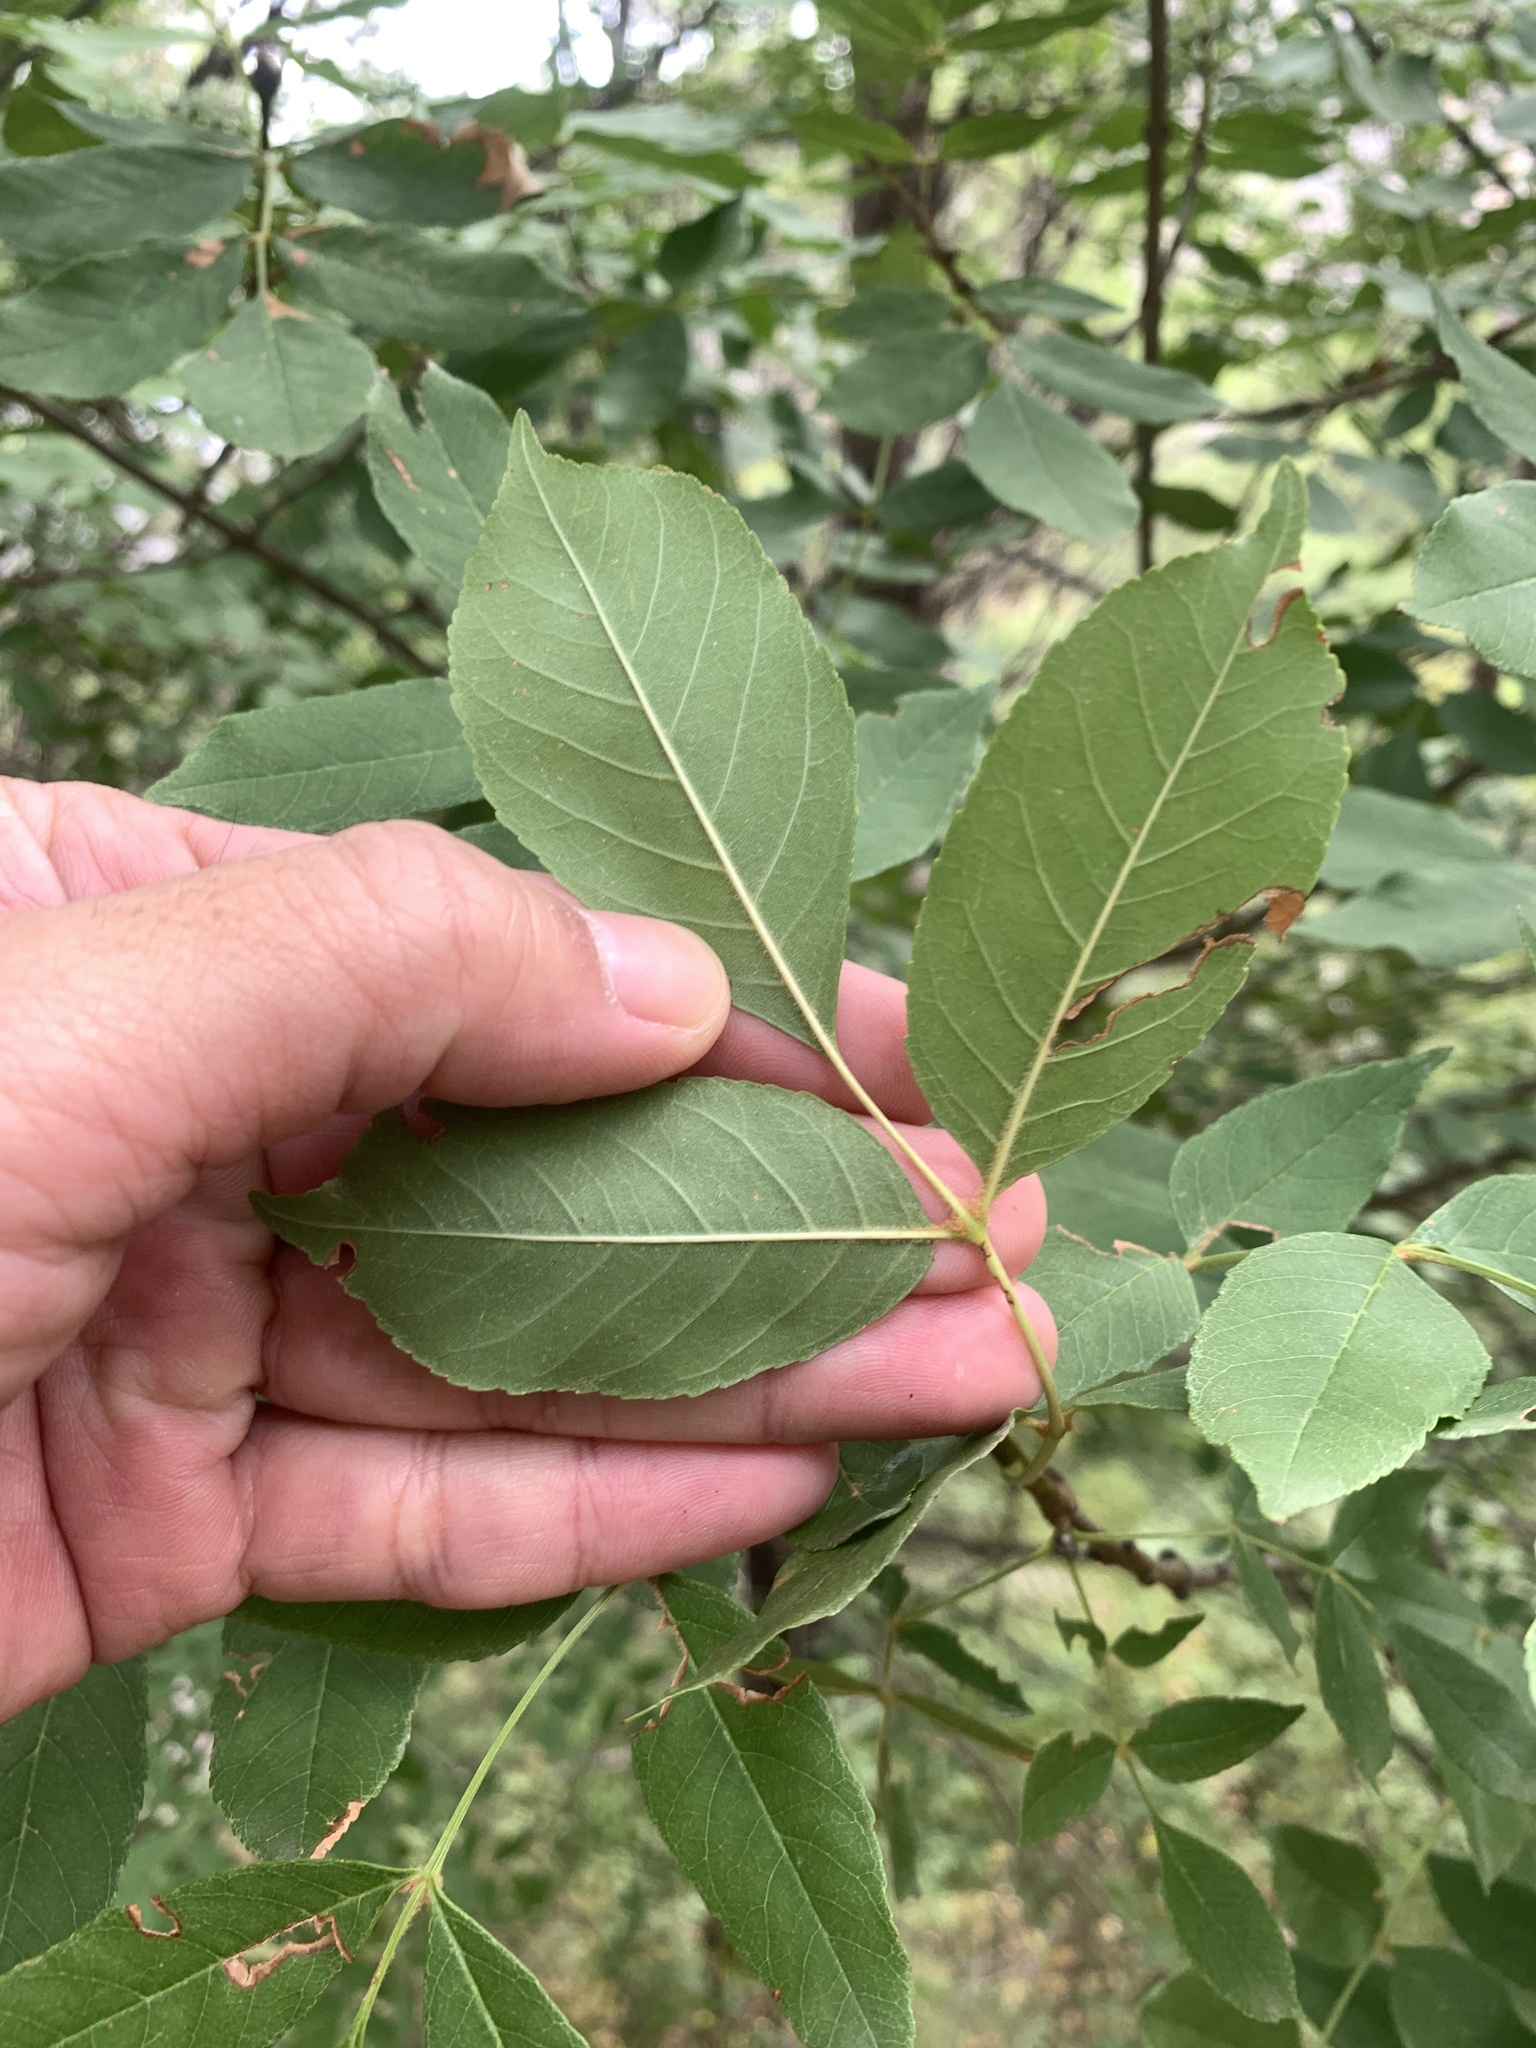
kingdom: Plantae
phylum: Tracheophyta
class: Magnoliopsida
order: Lamiales
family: Oleaceae
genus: Fraxinus
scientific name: Fraxinus ornus
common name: Manna ash
